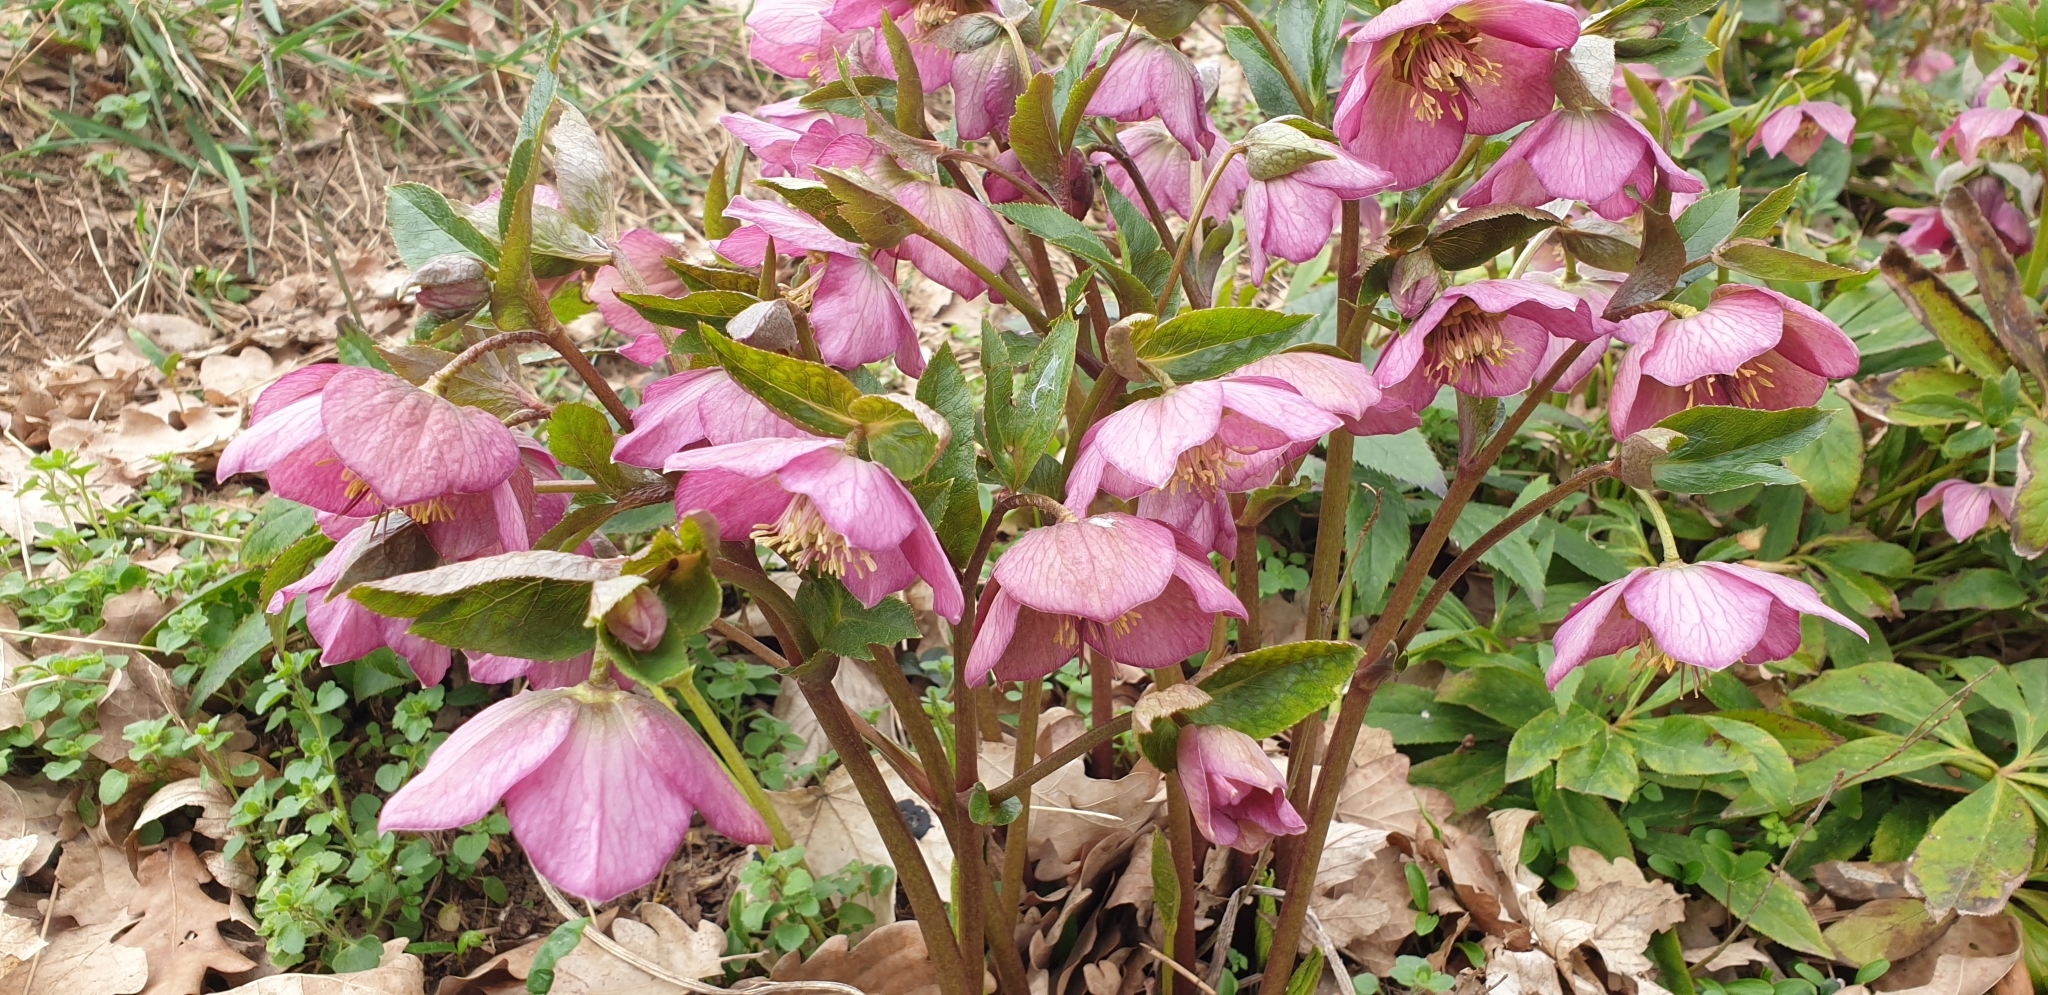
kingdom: Plantae
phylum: Tracheophyta
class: Magnoliopsida
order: Ranunculales
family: Ranunculaceae
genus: Helleborus
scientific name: Helleborus orientalis
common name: Lenten-rose
